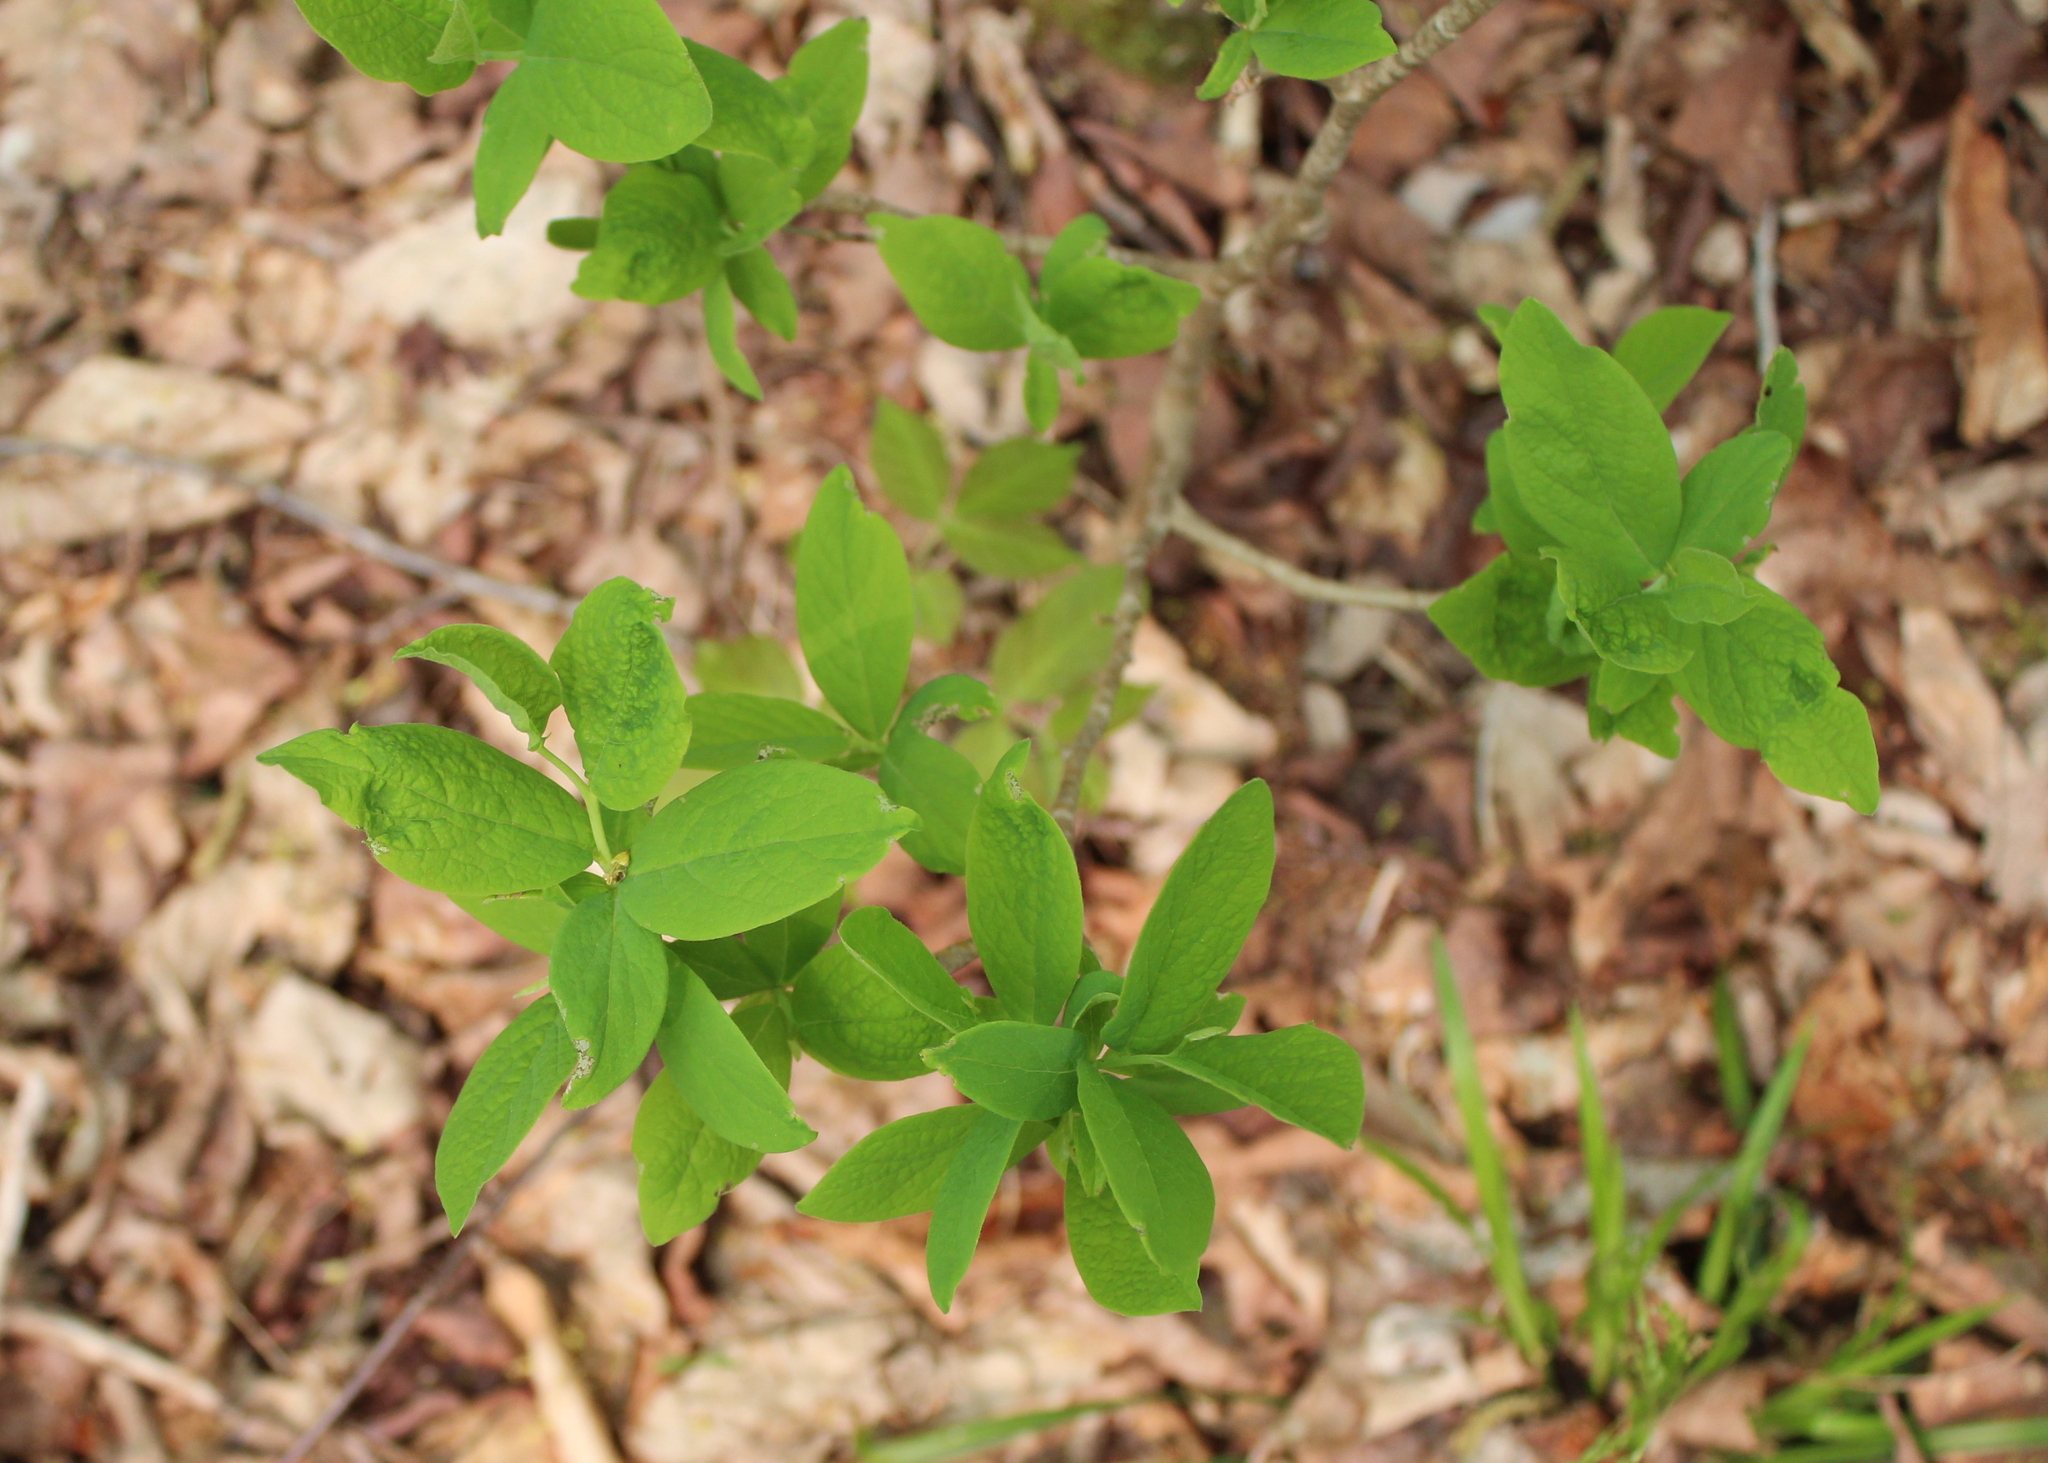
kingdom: Plantae
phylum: Tracheophyta
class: Magnoliopsida
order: Malvales
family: Thymelaeaceae
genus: Dirca
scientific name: Dirca palustris
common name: Leatherwood
